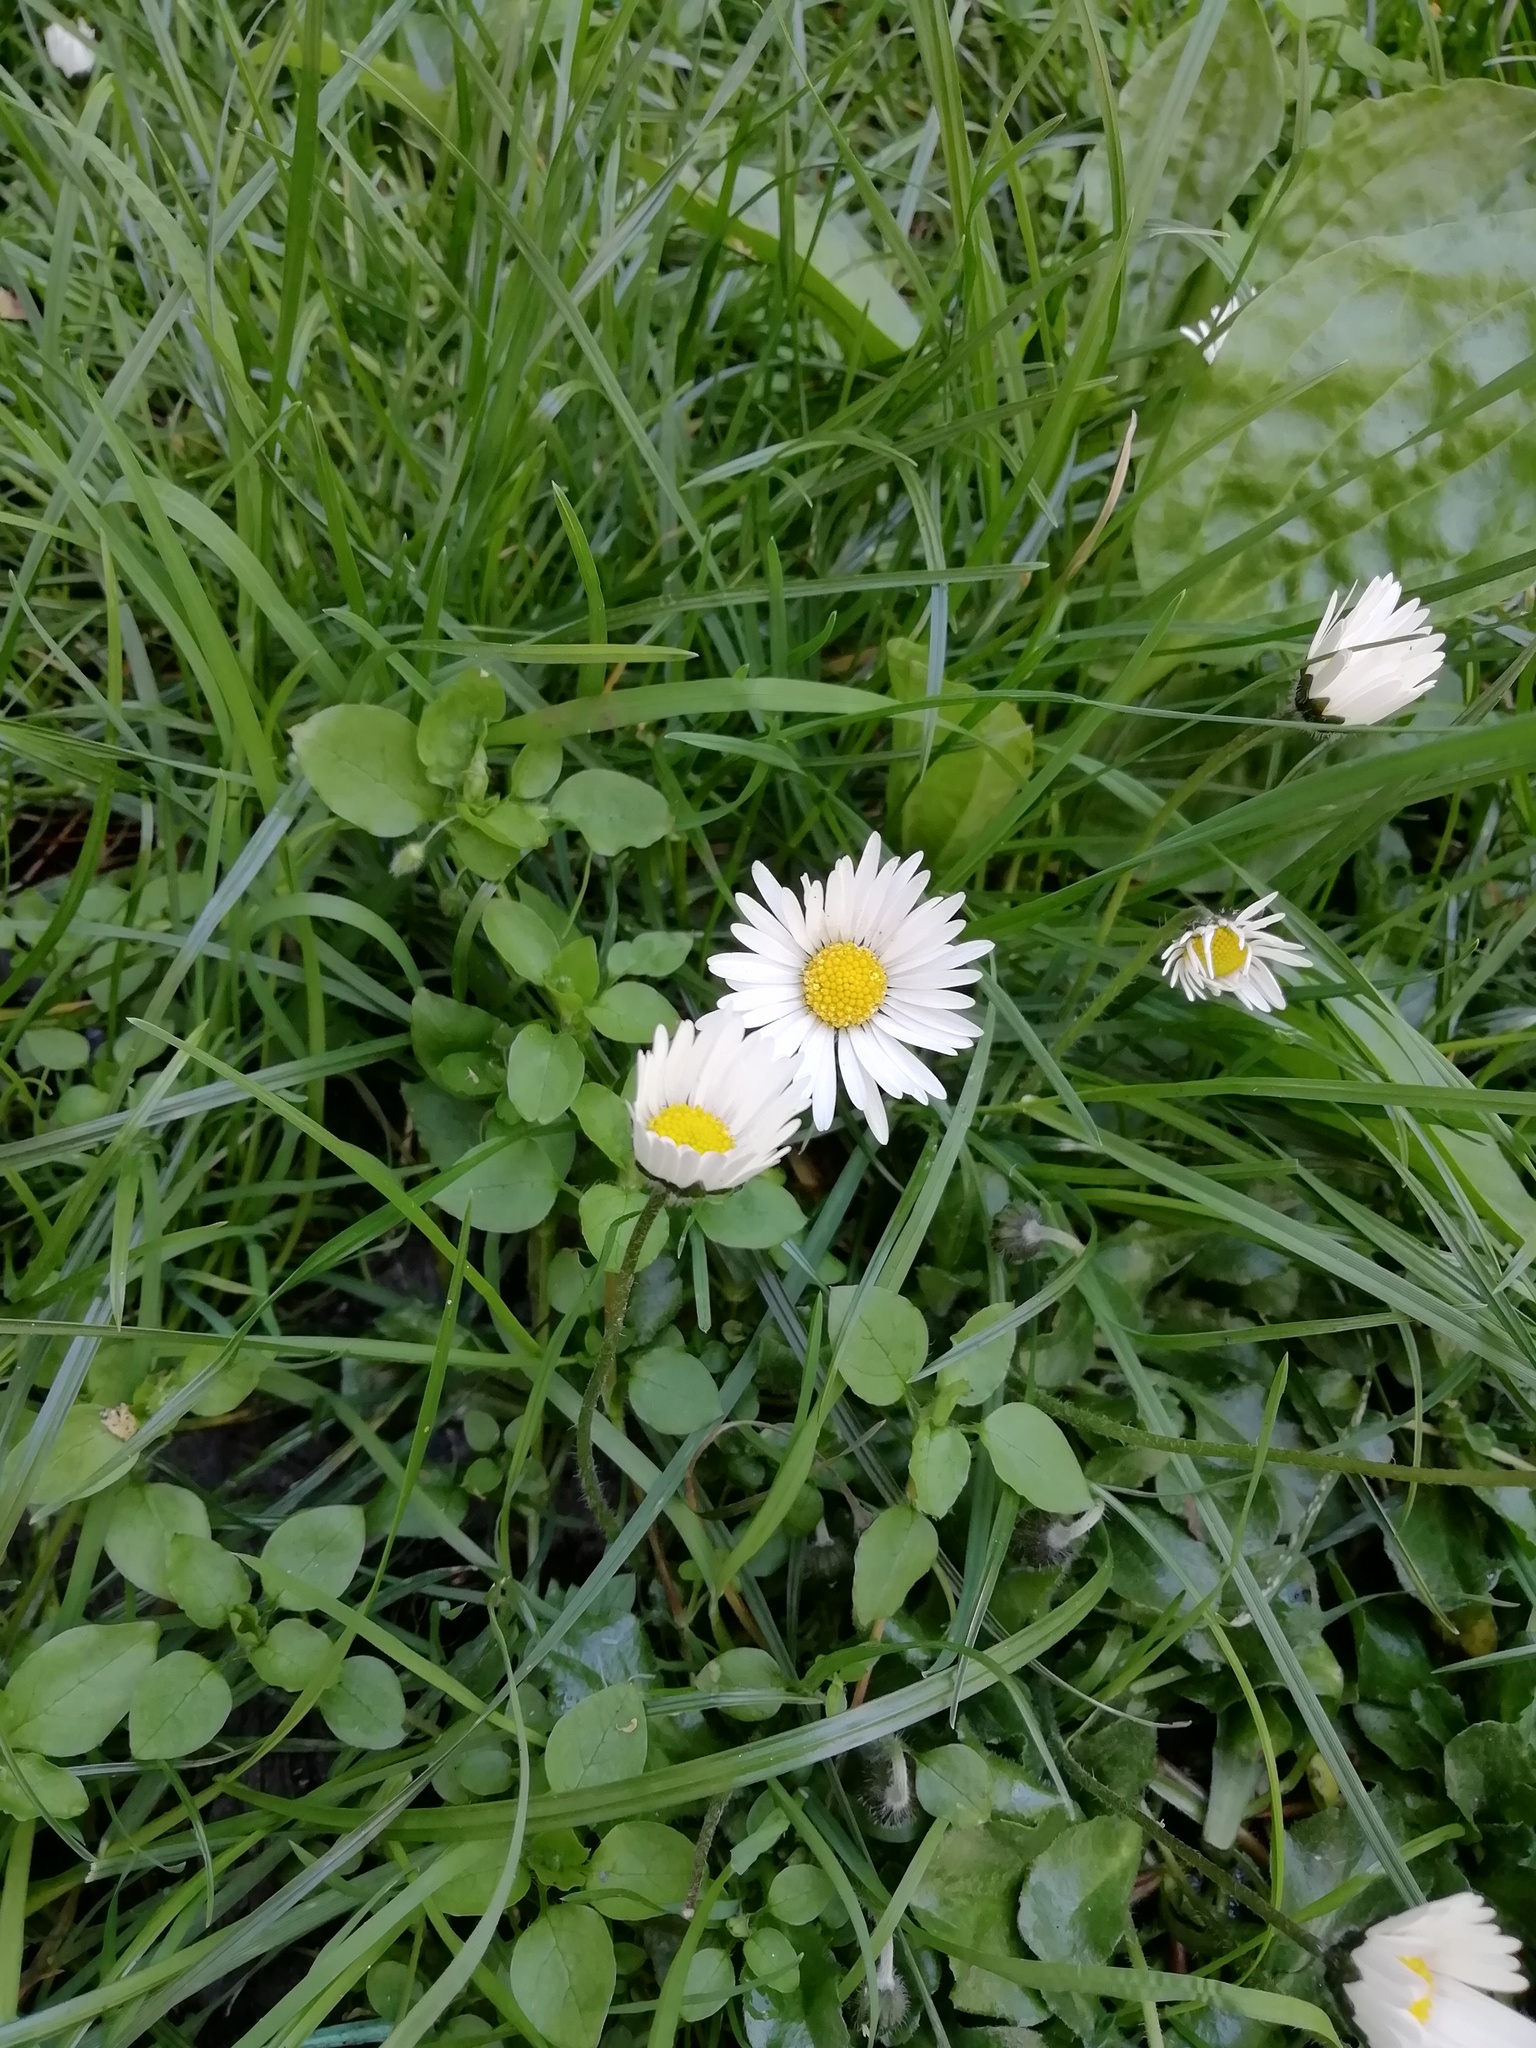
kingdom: Plantae
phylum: Tracheophyta
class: Magnoliopsida
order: Asterales
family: Asteraceae
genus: Bellis
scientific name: Bellis perennis
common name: Lawndaisy
